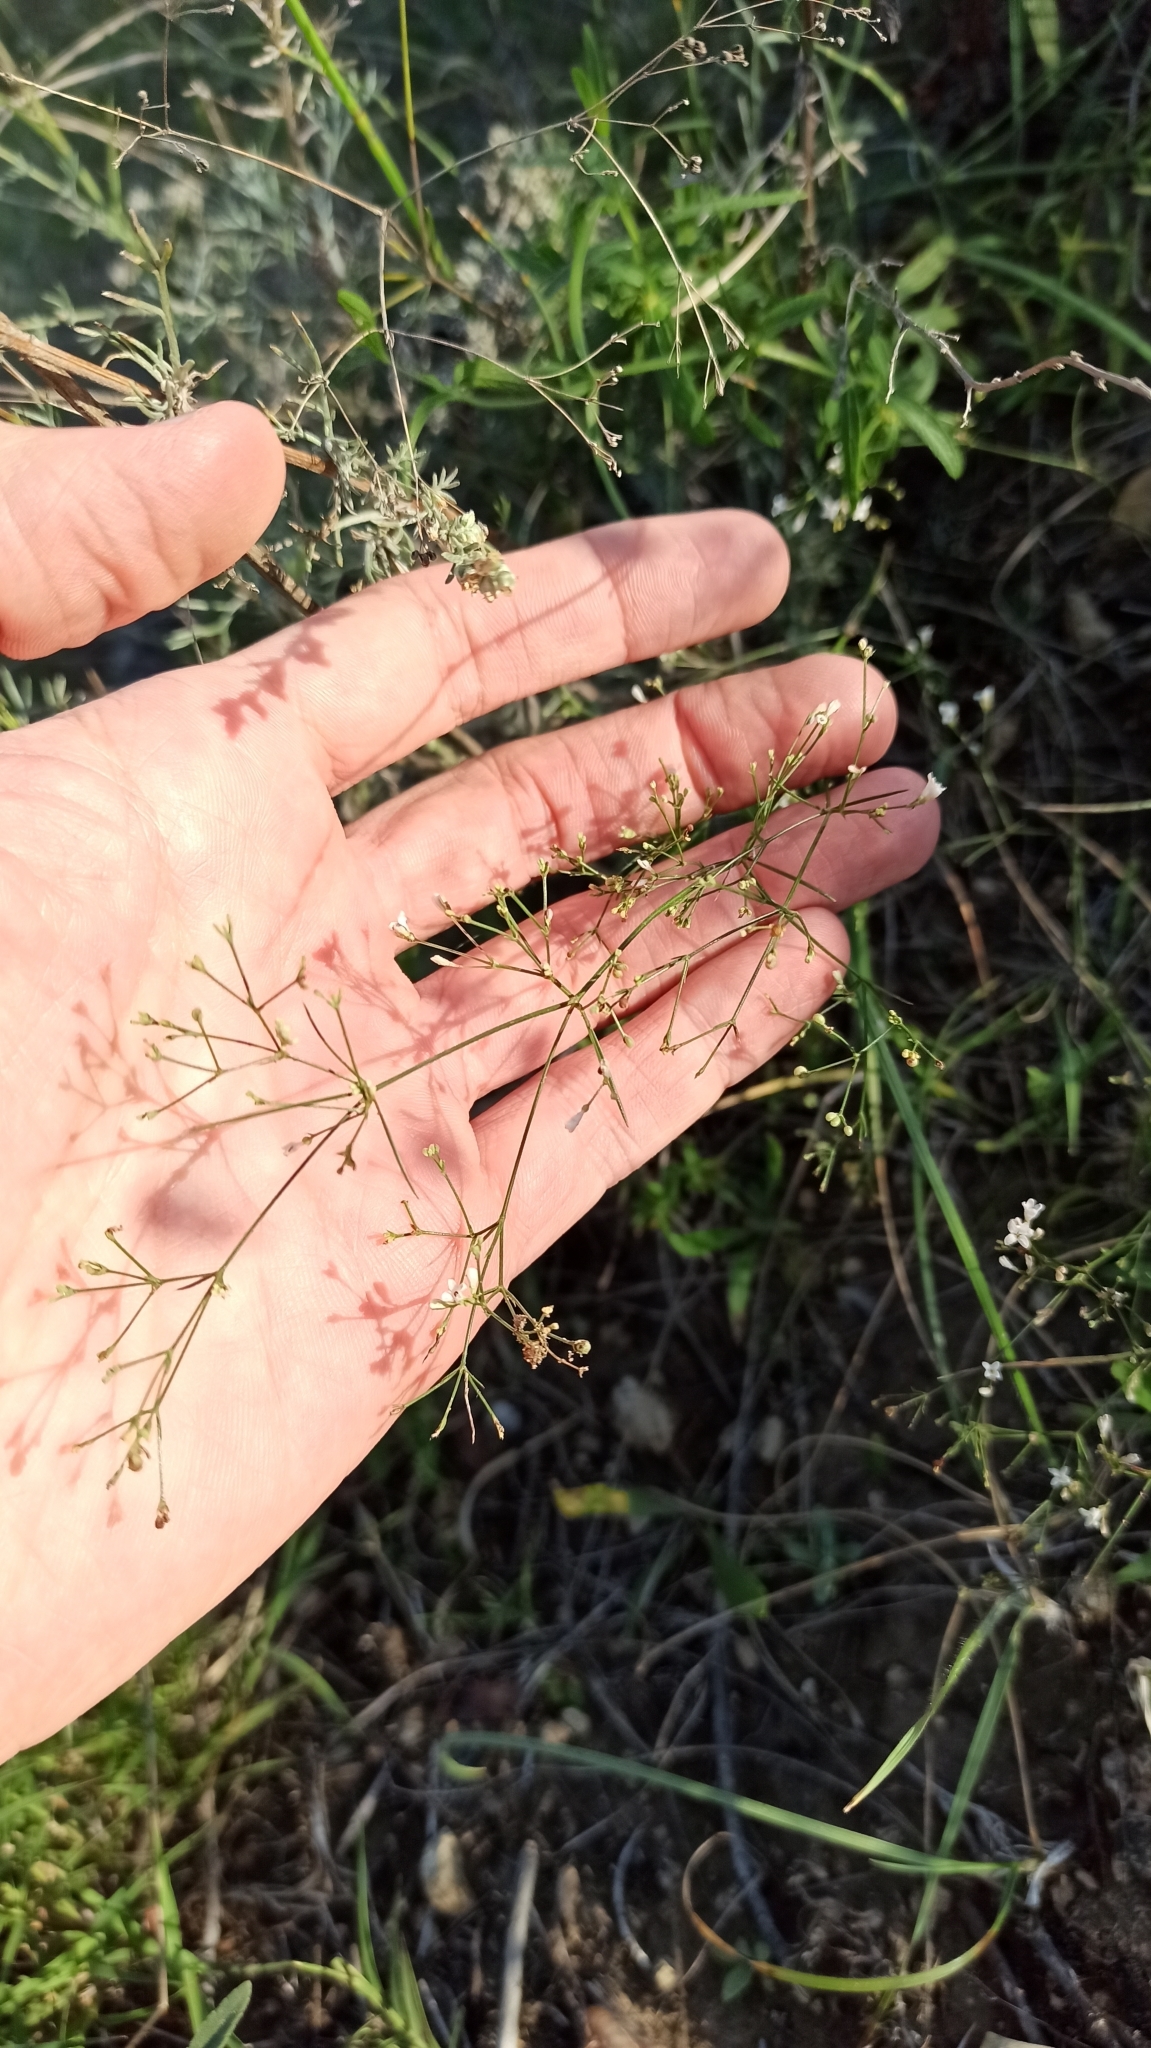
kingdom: Plantae
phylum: Tracheophyta
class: Magnoliopsida
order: Gentianales
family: Rubiaceae
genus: Cynanchica
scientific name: Cynanchica pyrenaica
